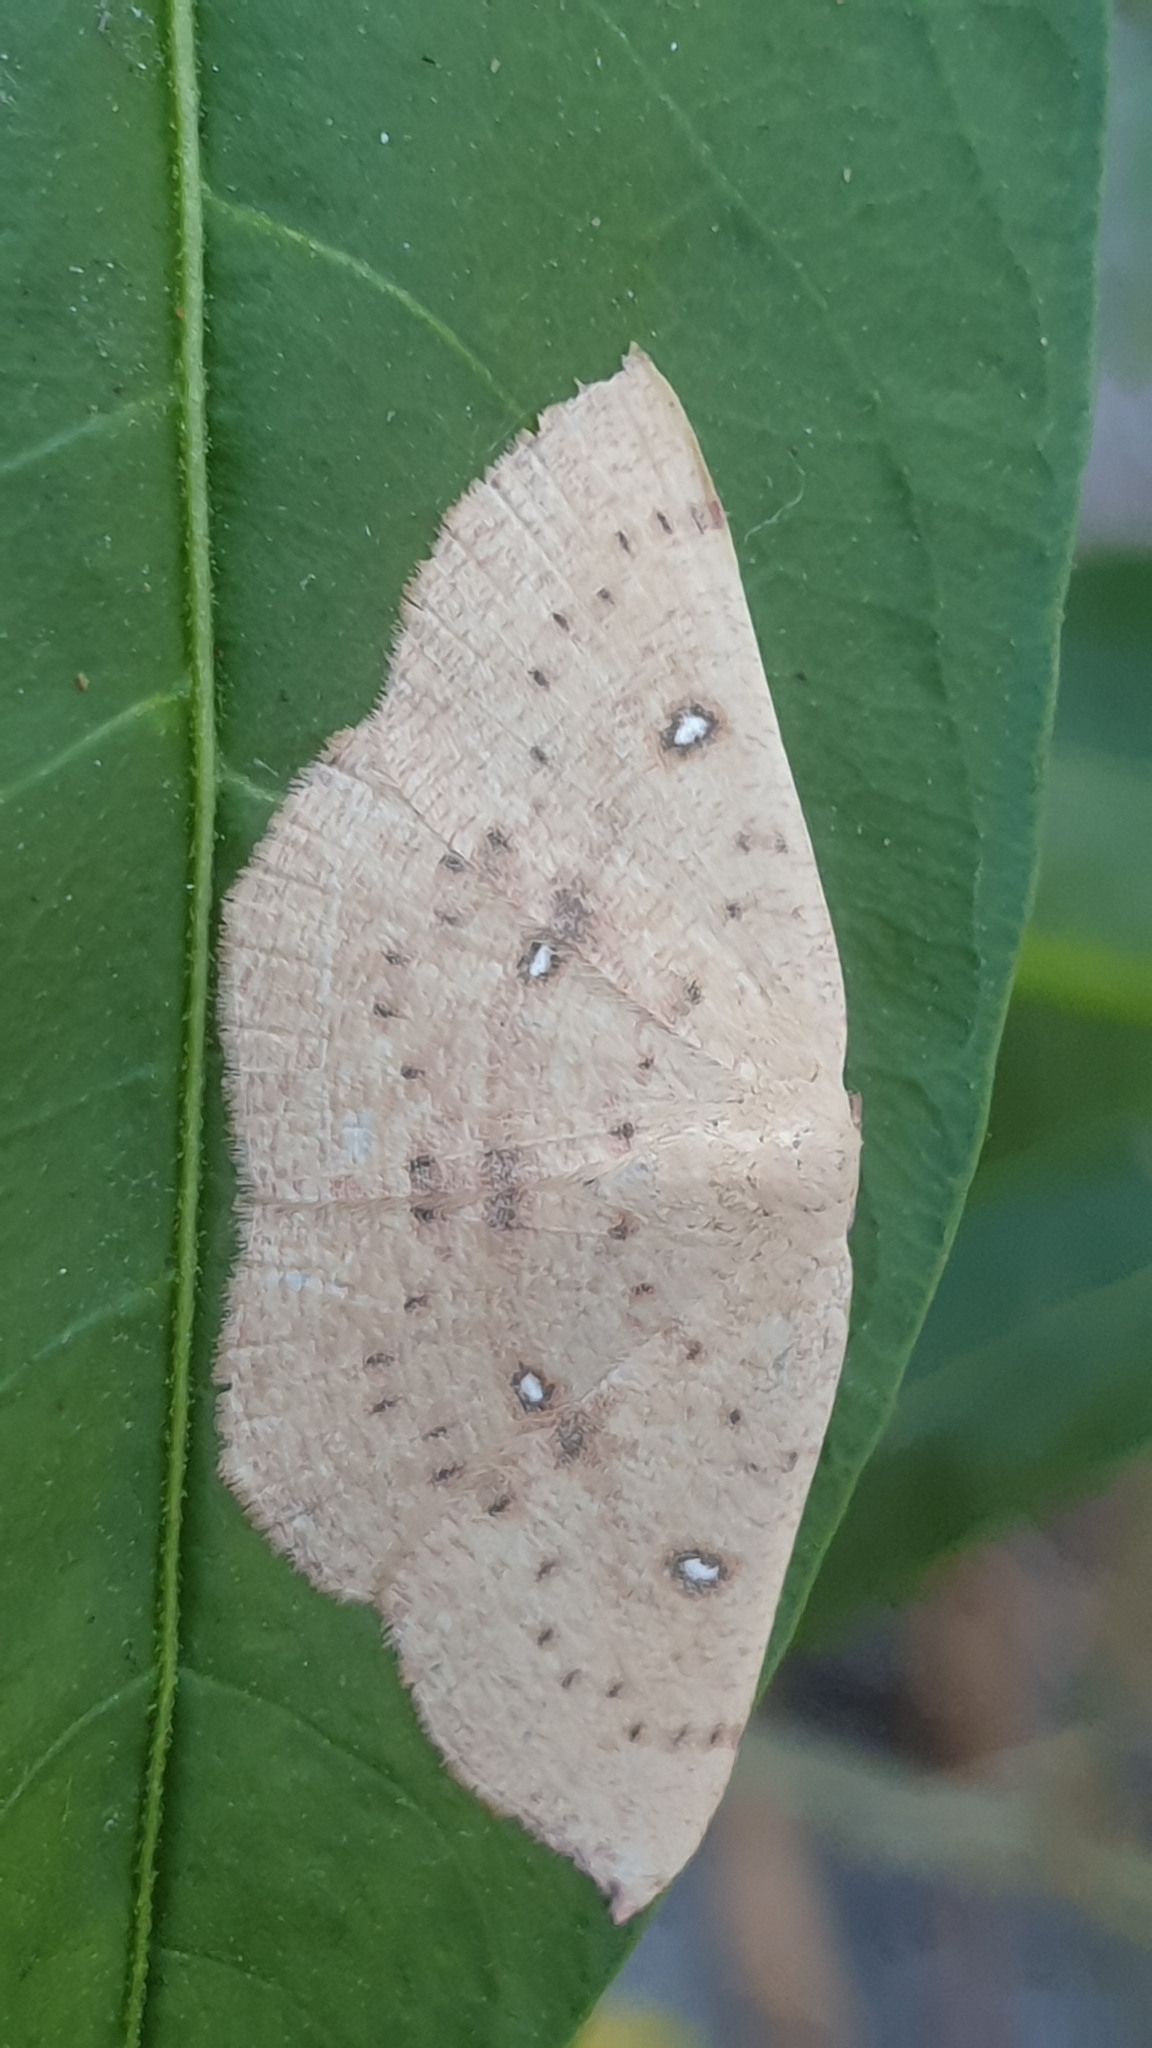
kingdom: Animalia
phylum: Arthropoda
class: Insecta
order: Lepidoptera
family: Geometridae
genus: Cyclophora
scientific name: Cyclophora puppillaria
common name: Blair's mocha
